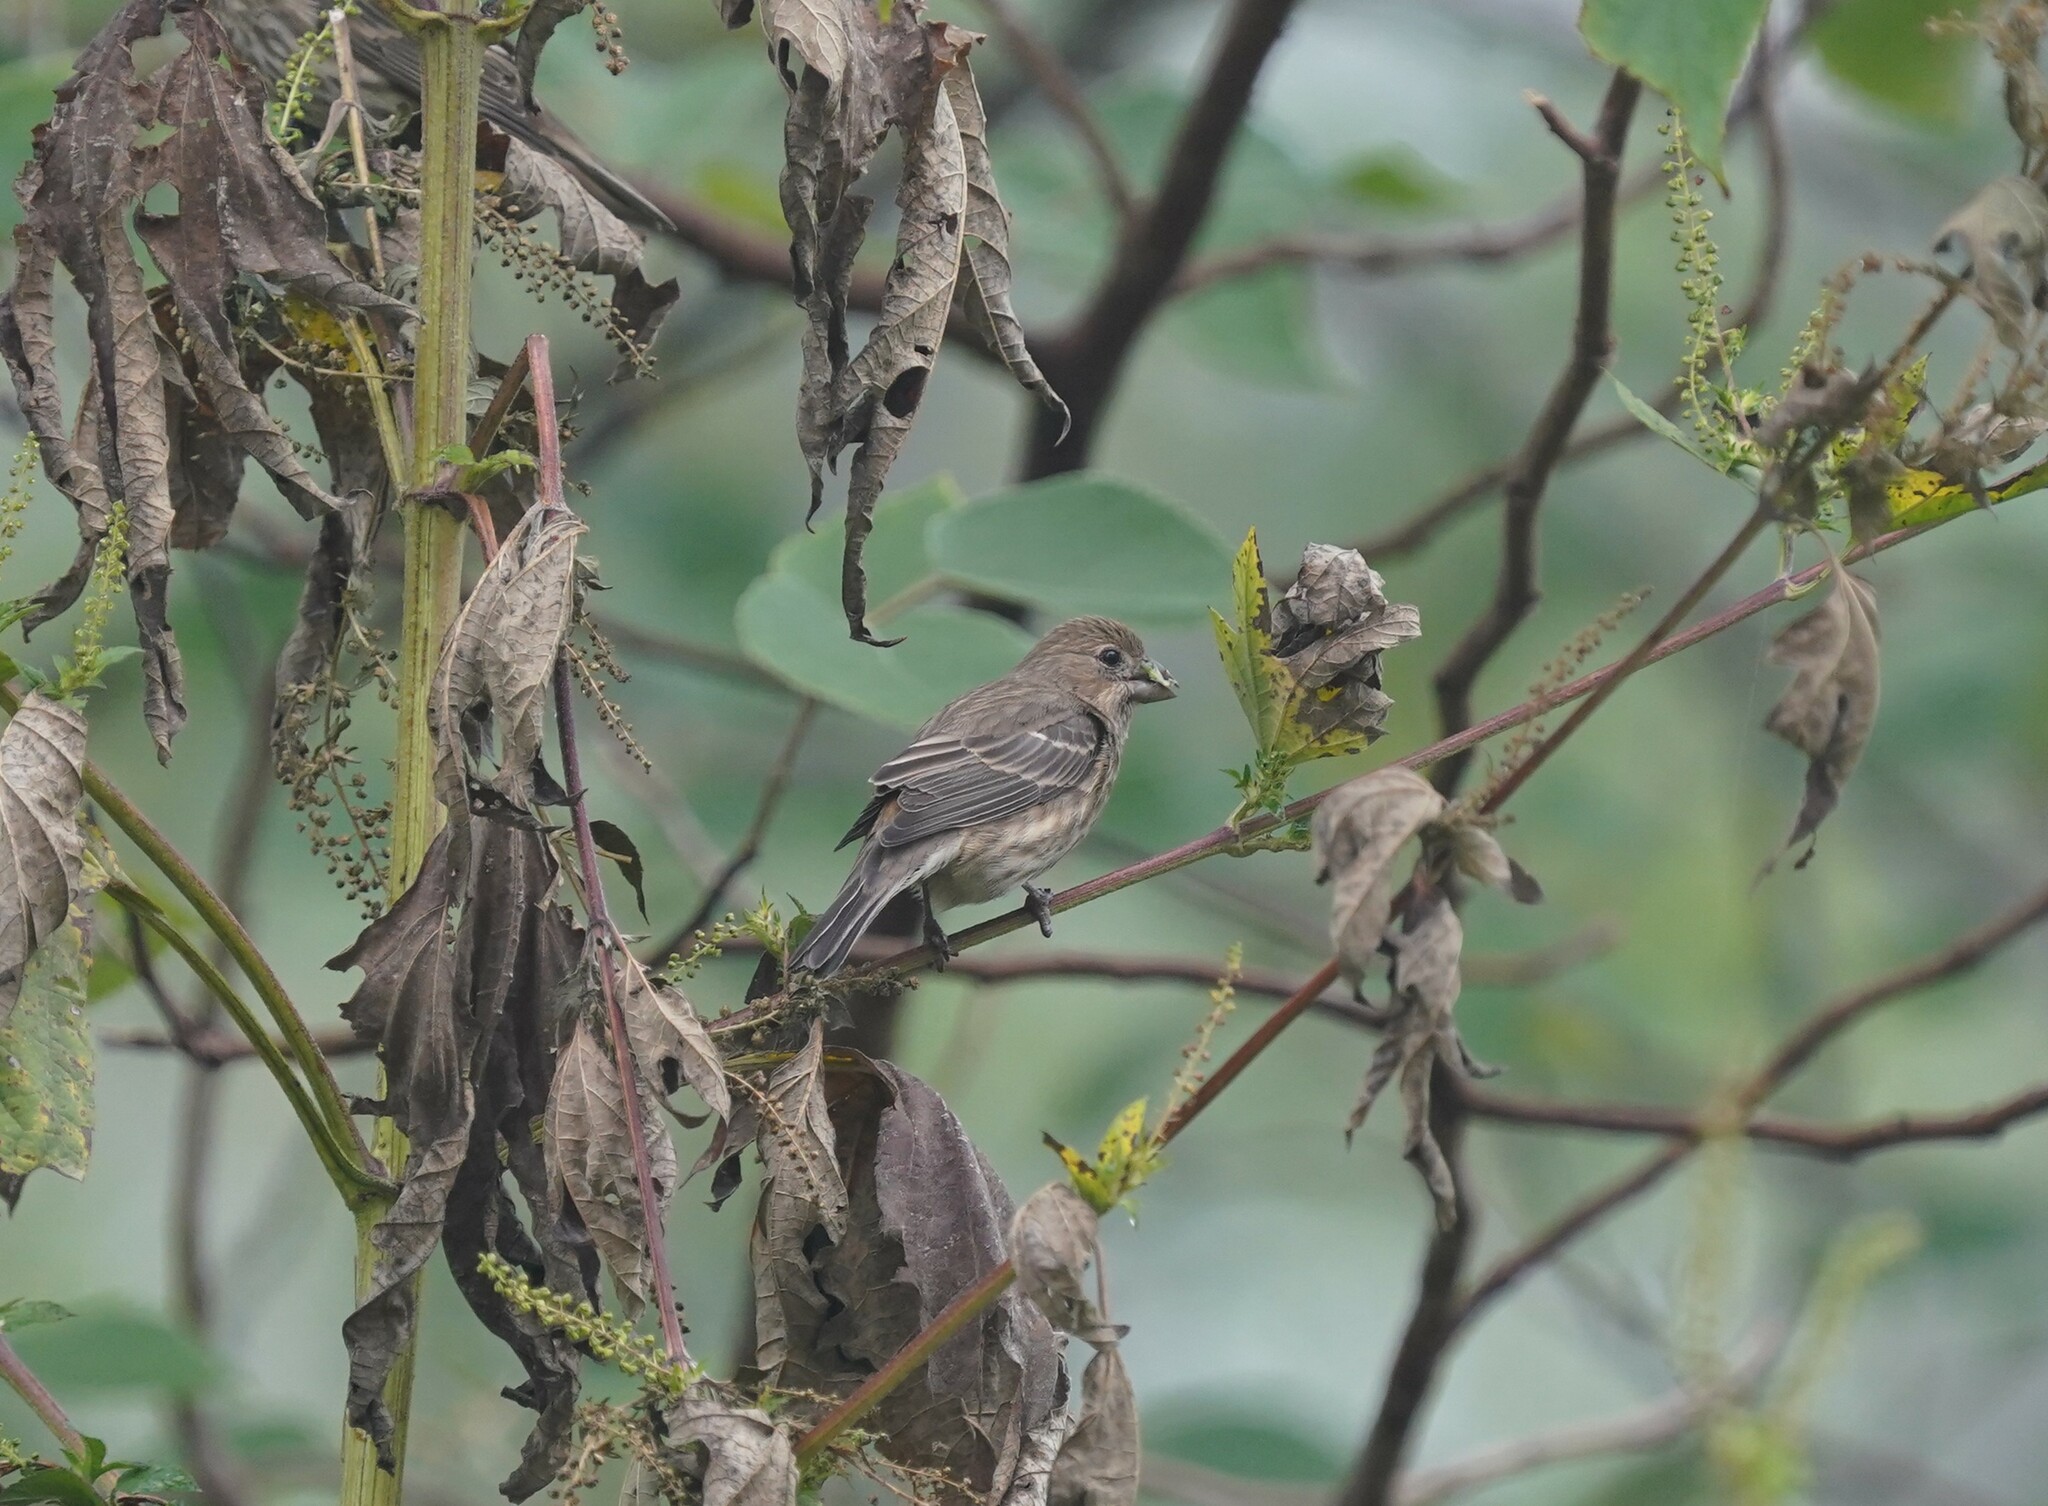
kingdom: Animalia
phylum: Chordata
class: Aves
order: Passeriformes
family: Fringillidae
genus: Haemorhous
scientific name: Haemorhous mexicanus
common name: House finch
